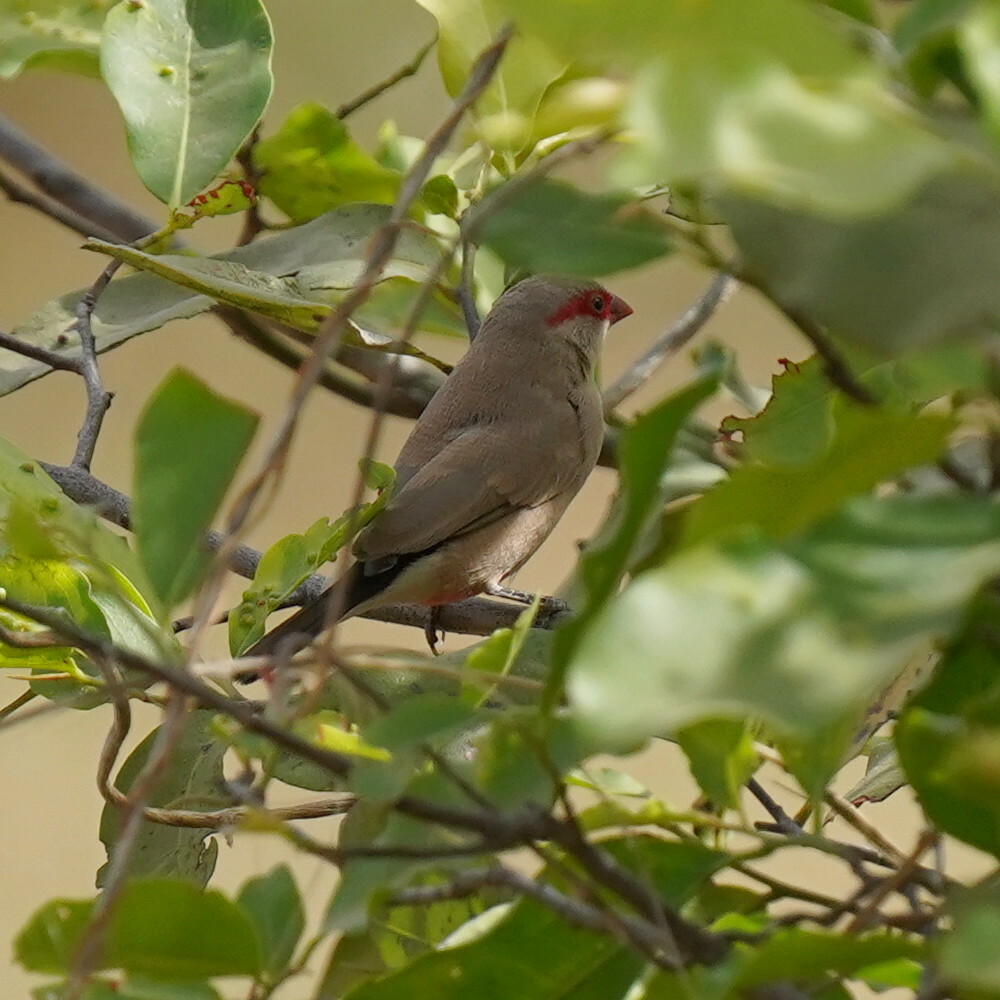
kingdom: Animalia
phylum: Chordata
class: Aves
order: Passeriformes
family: Estrildidae
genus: Estrilda
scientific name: Estrilda troglodytes
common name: Black-rumped waxbill
